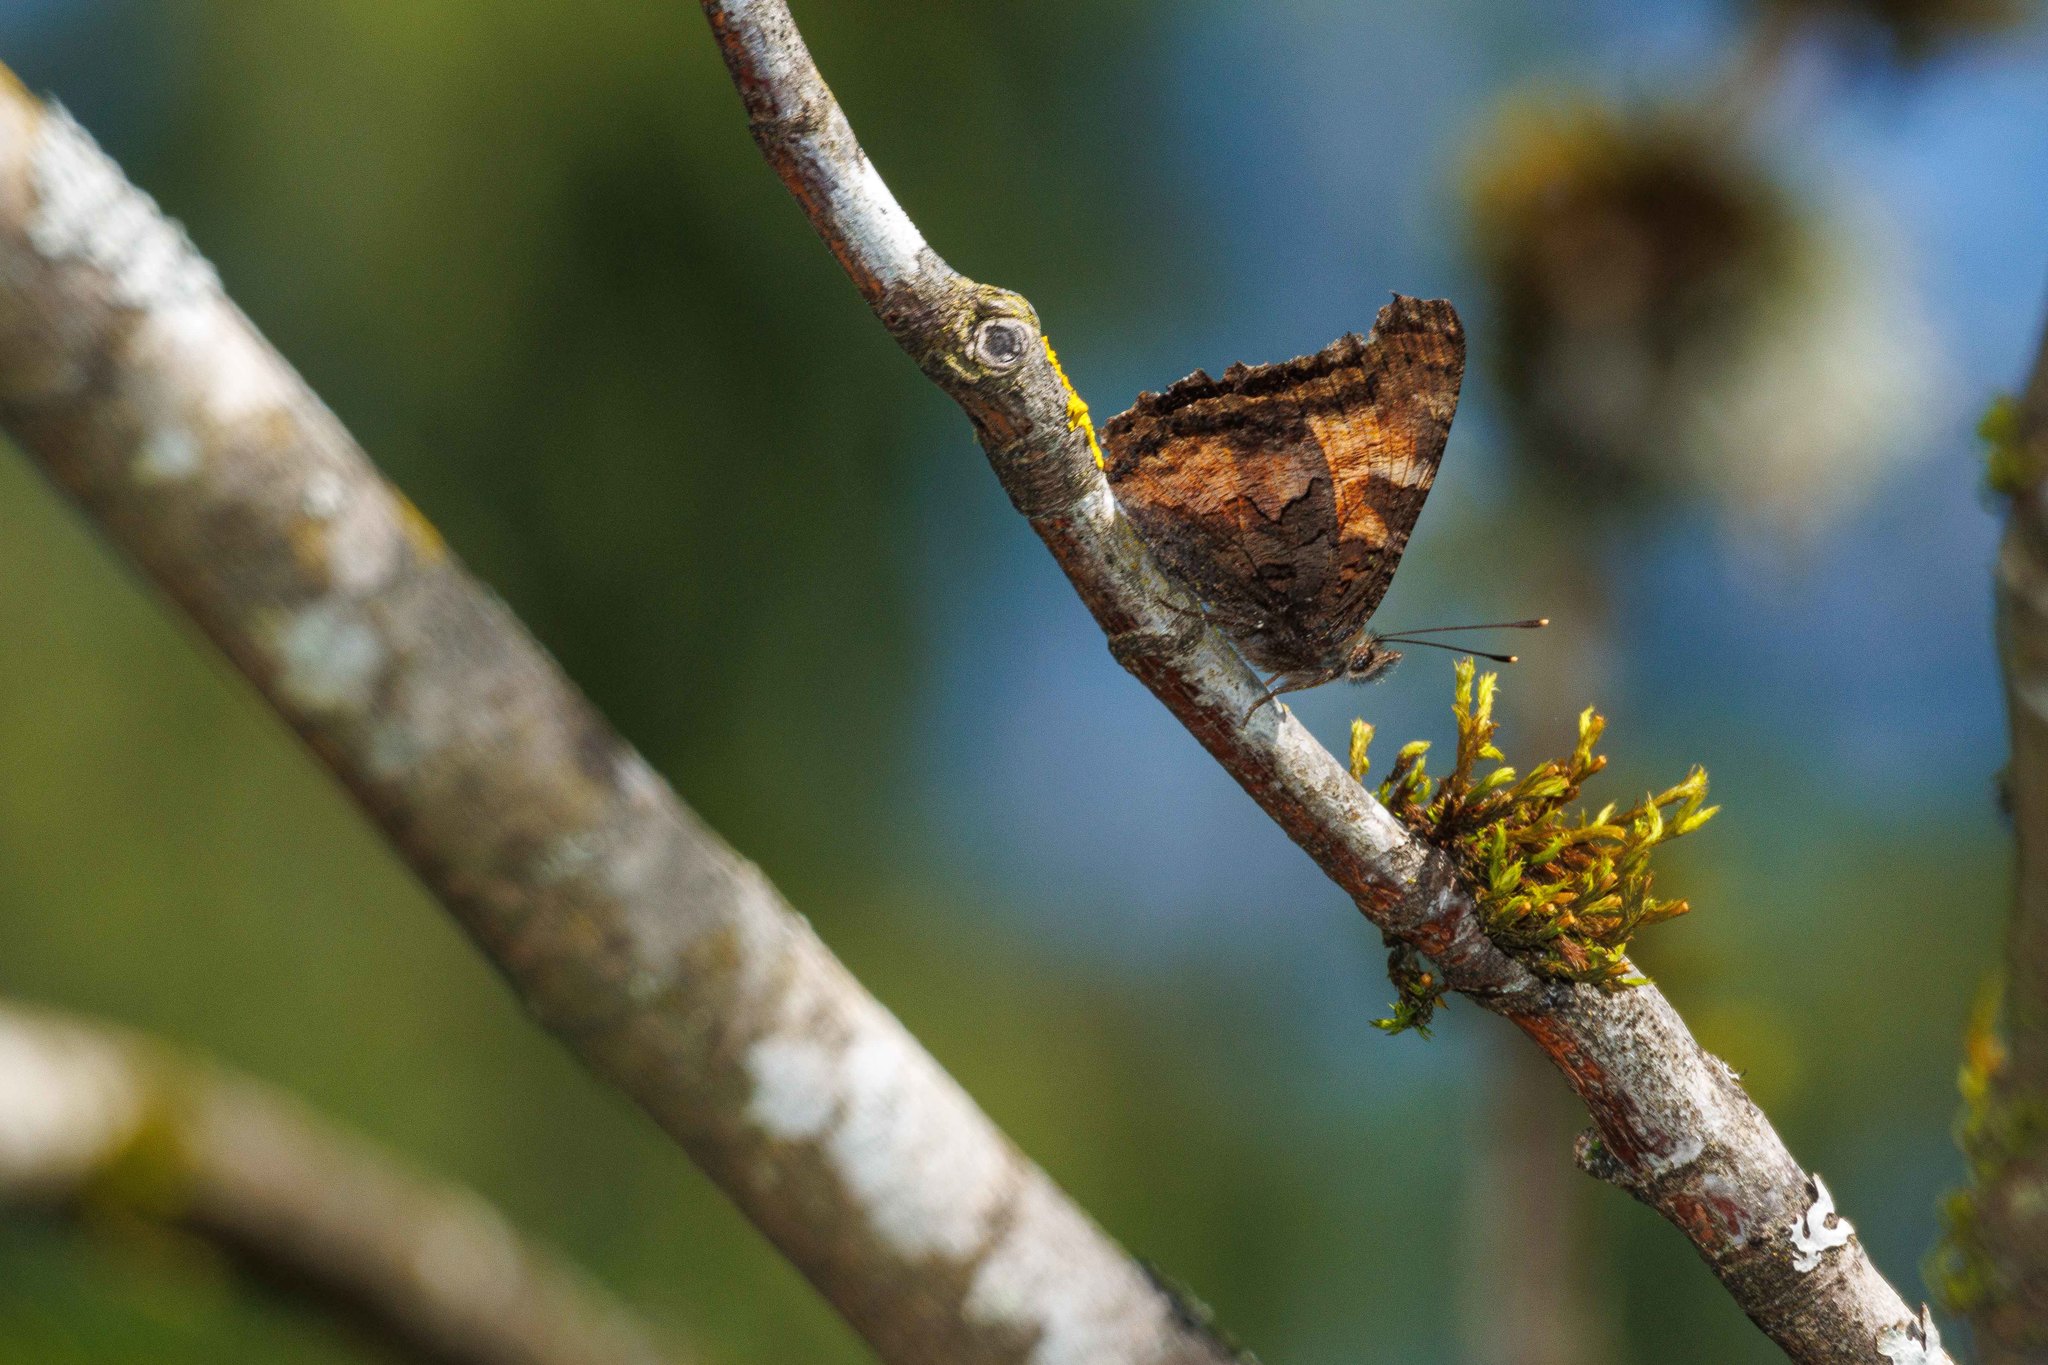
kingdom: Animalia
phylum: Arthropoda
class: Insecta
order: Lepidoptera
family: Nymphalidae
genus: Nymphalis
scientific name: Nymphalis californica
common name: California tortoiseshell
